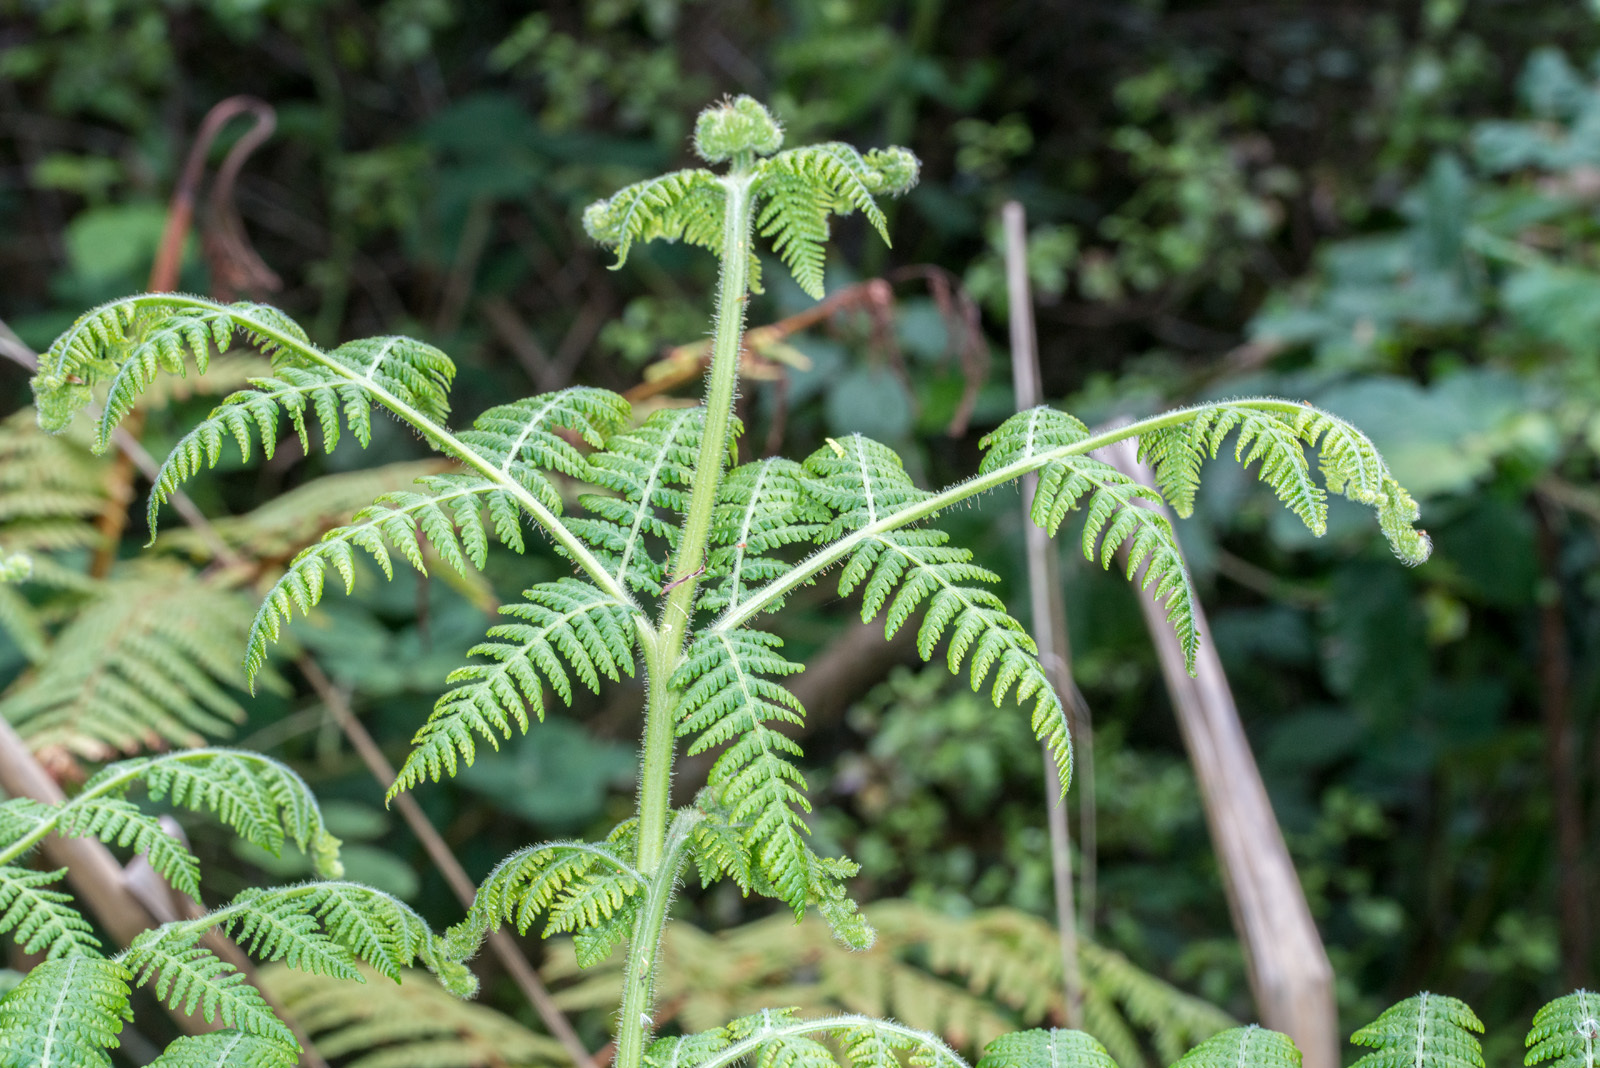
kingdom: Plantae
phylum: Tracheophyta
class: Polypodiopsida
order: Polypodiales
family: Dennstaedtiaceae
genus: Hypolepis
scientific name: Hypolepis dicksonioides
